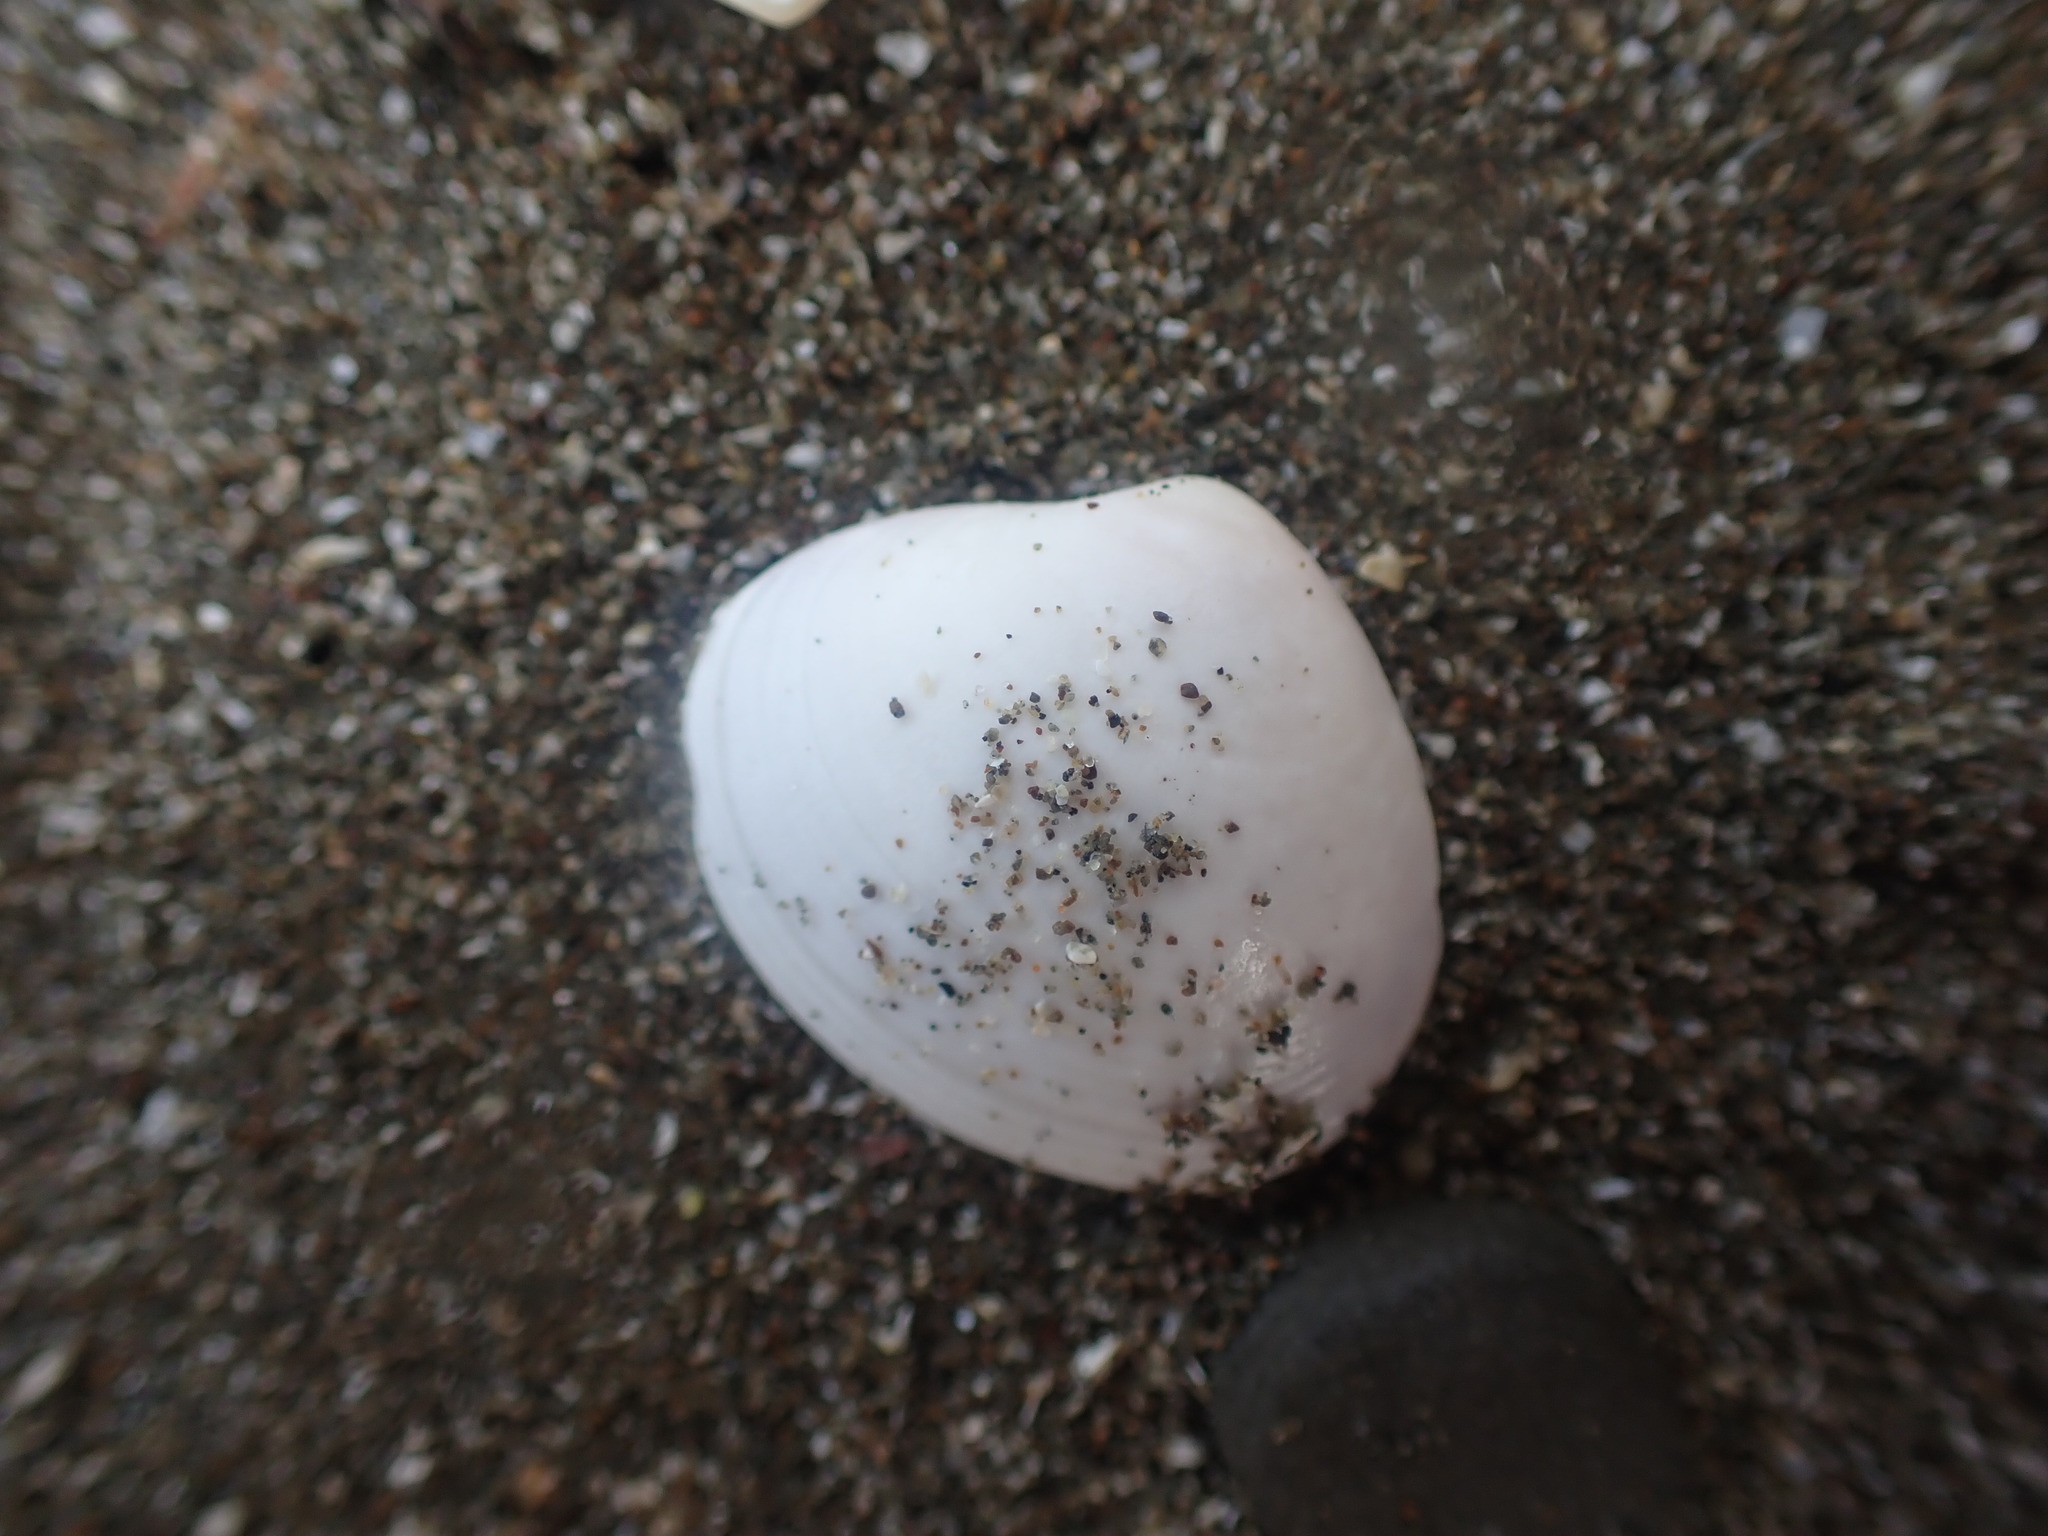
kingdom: Animalia
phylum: Mollusca
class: Bivalvia
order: Venerida
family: Veneridae
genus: Tawera
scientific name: Tawera spissa
